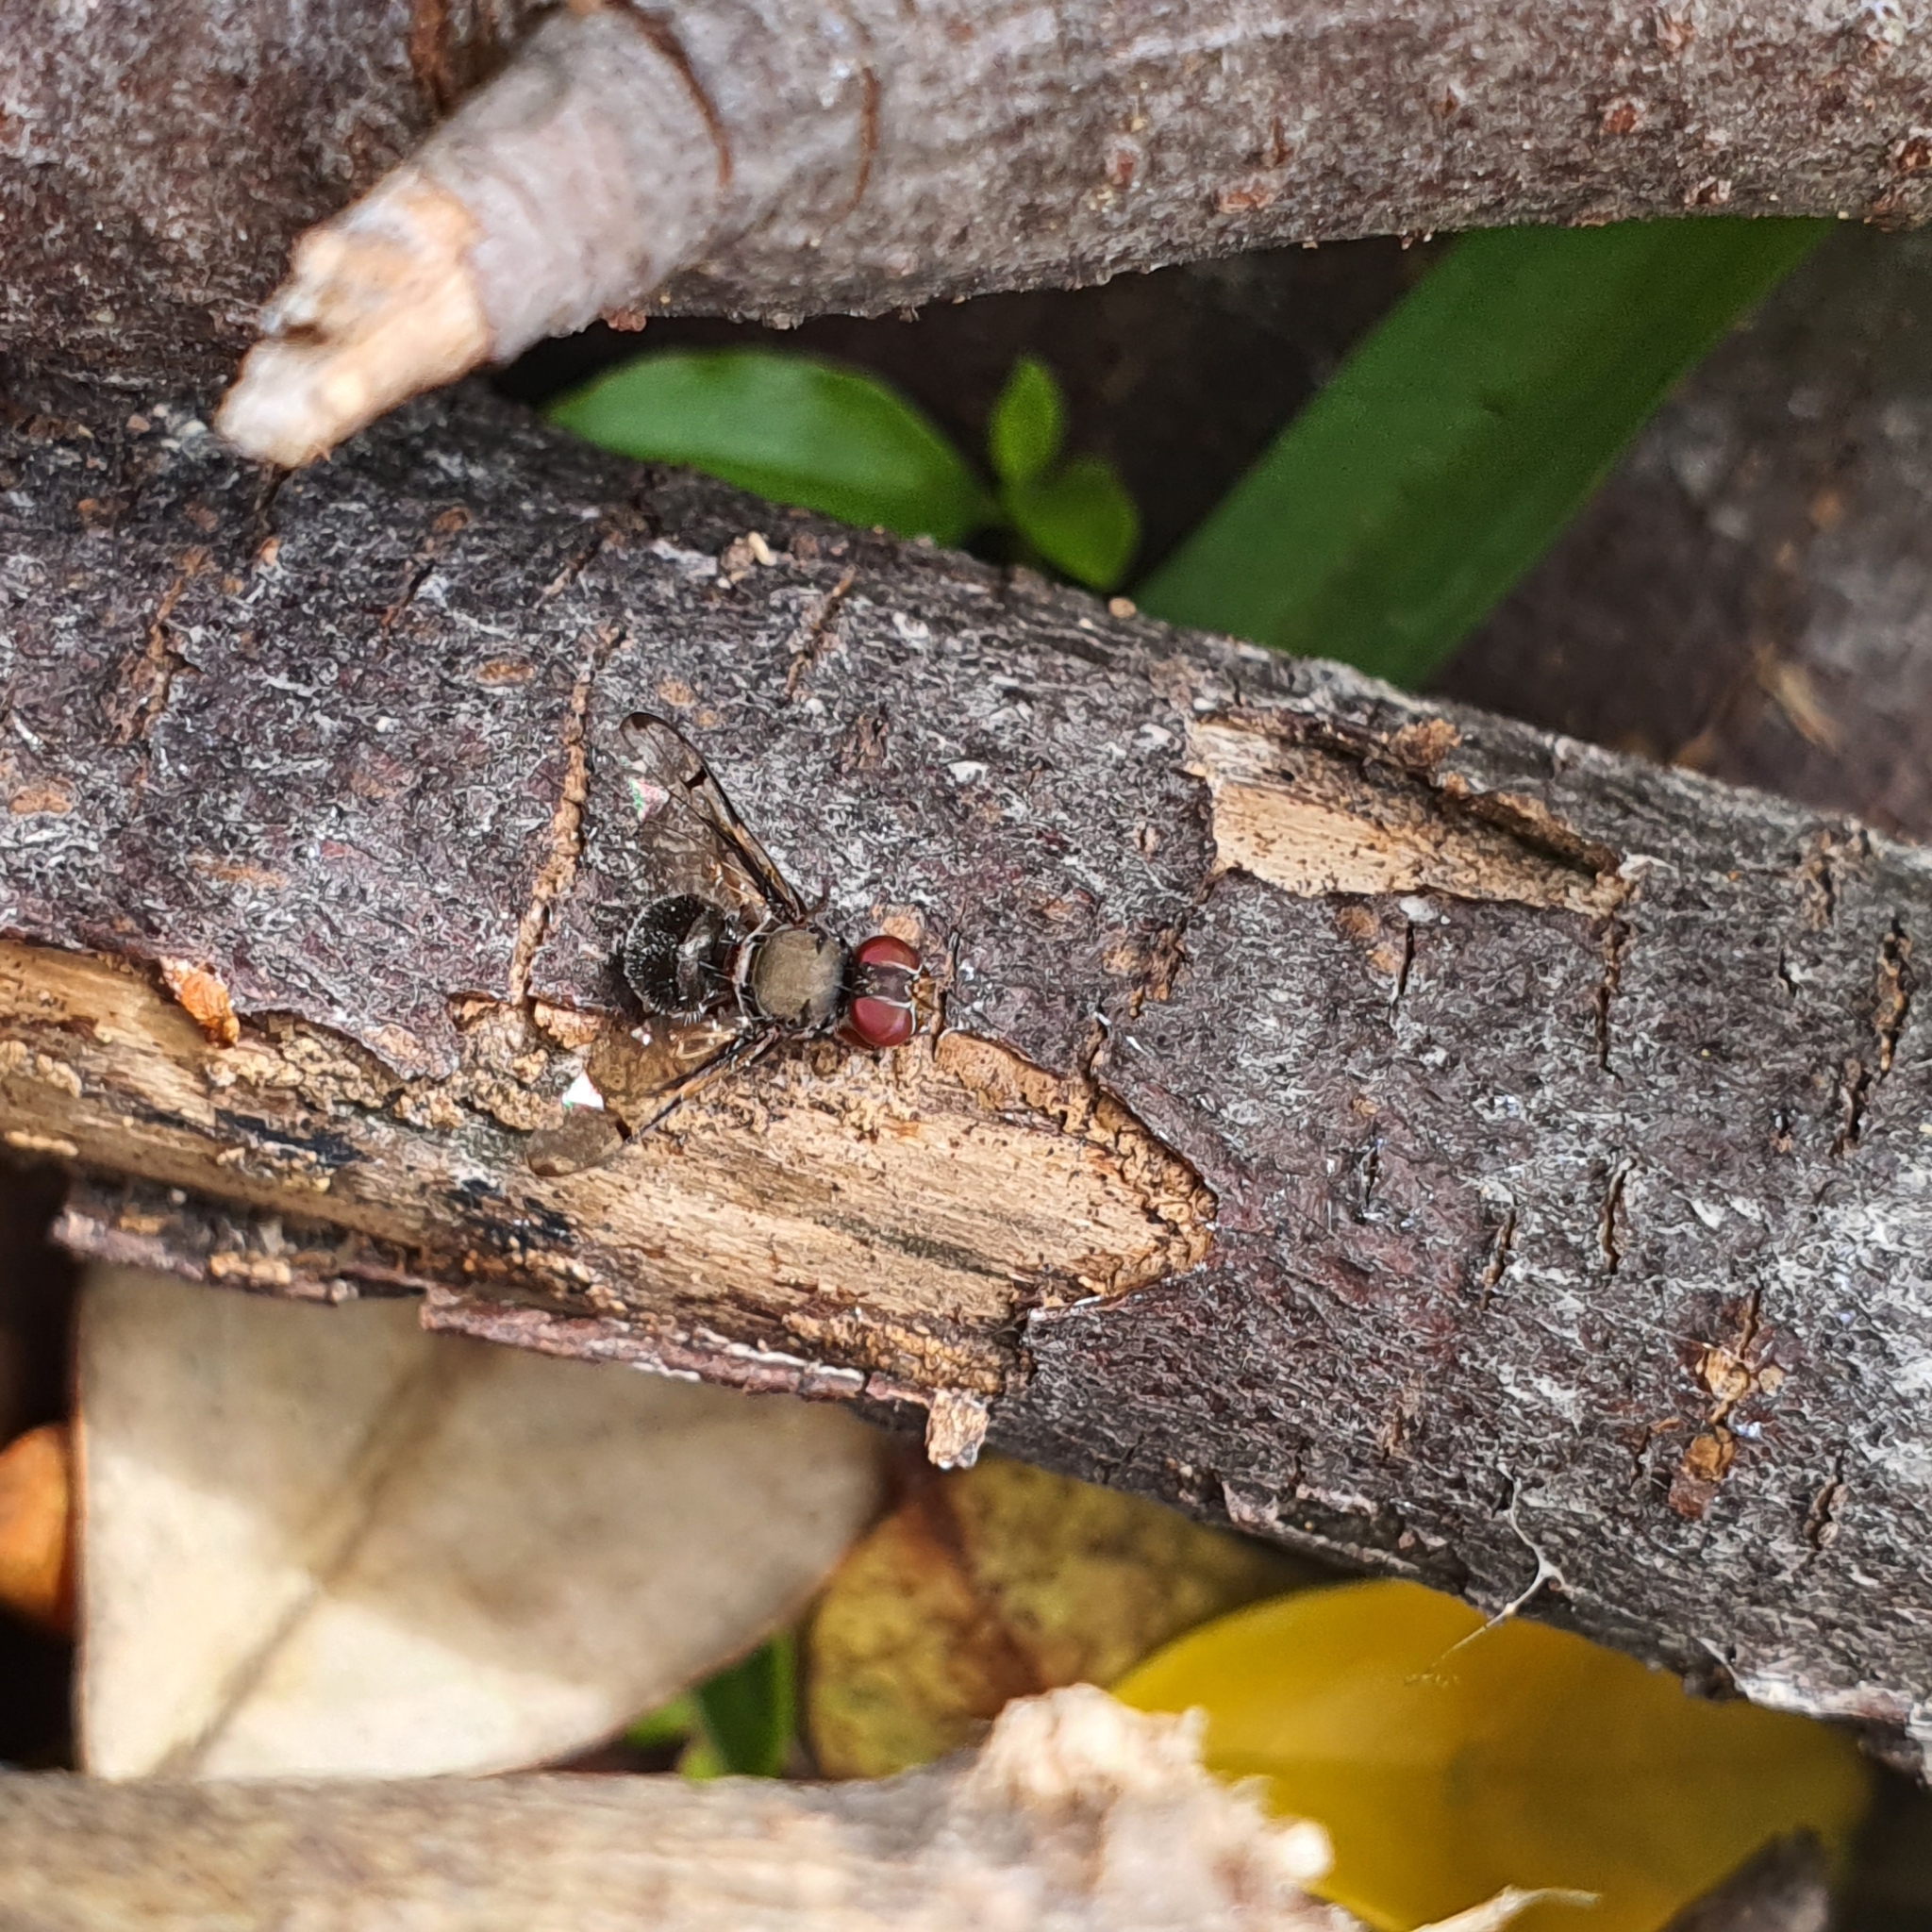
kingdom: Animalia
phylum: Arthropoda
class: Insecta
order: Diptera
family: Platystomatidae
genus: Pogonortalis
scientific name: Pogonortalis doclea
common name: Boatman fly
